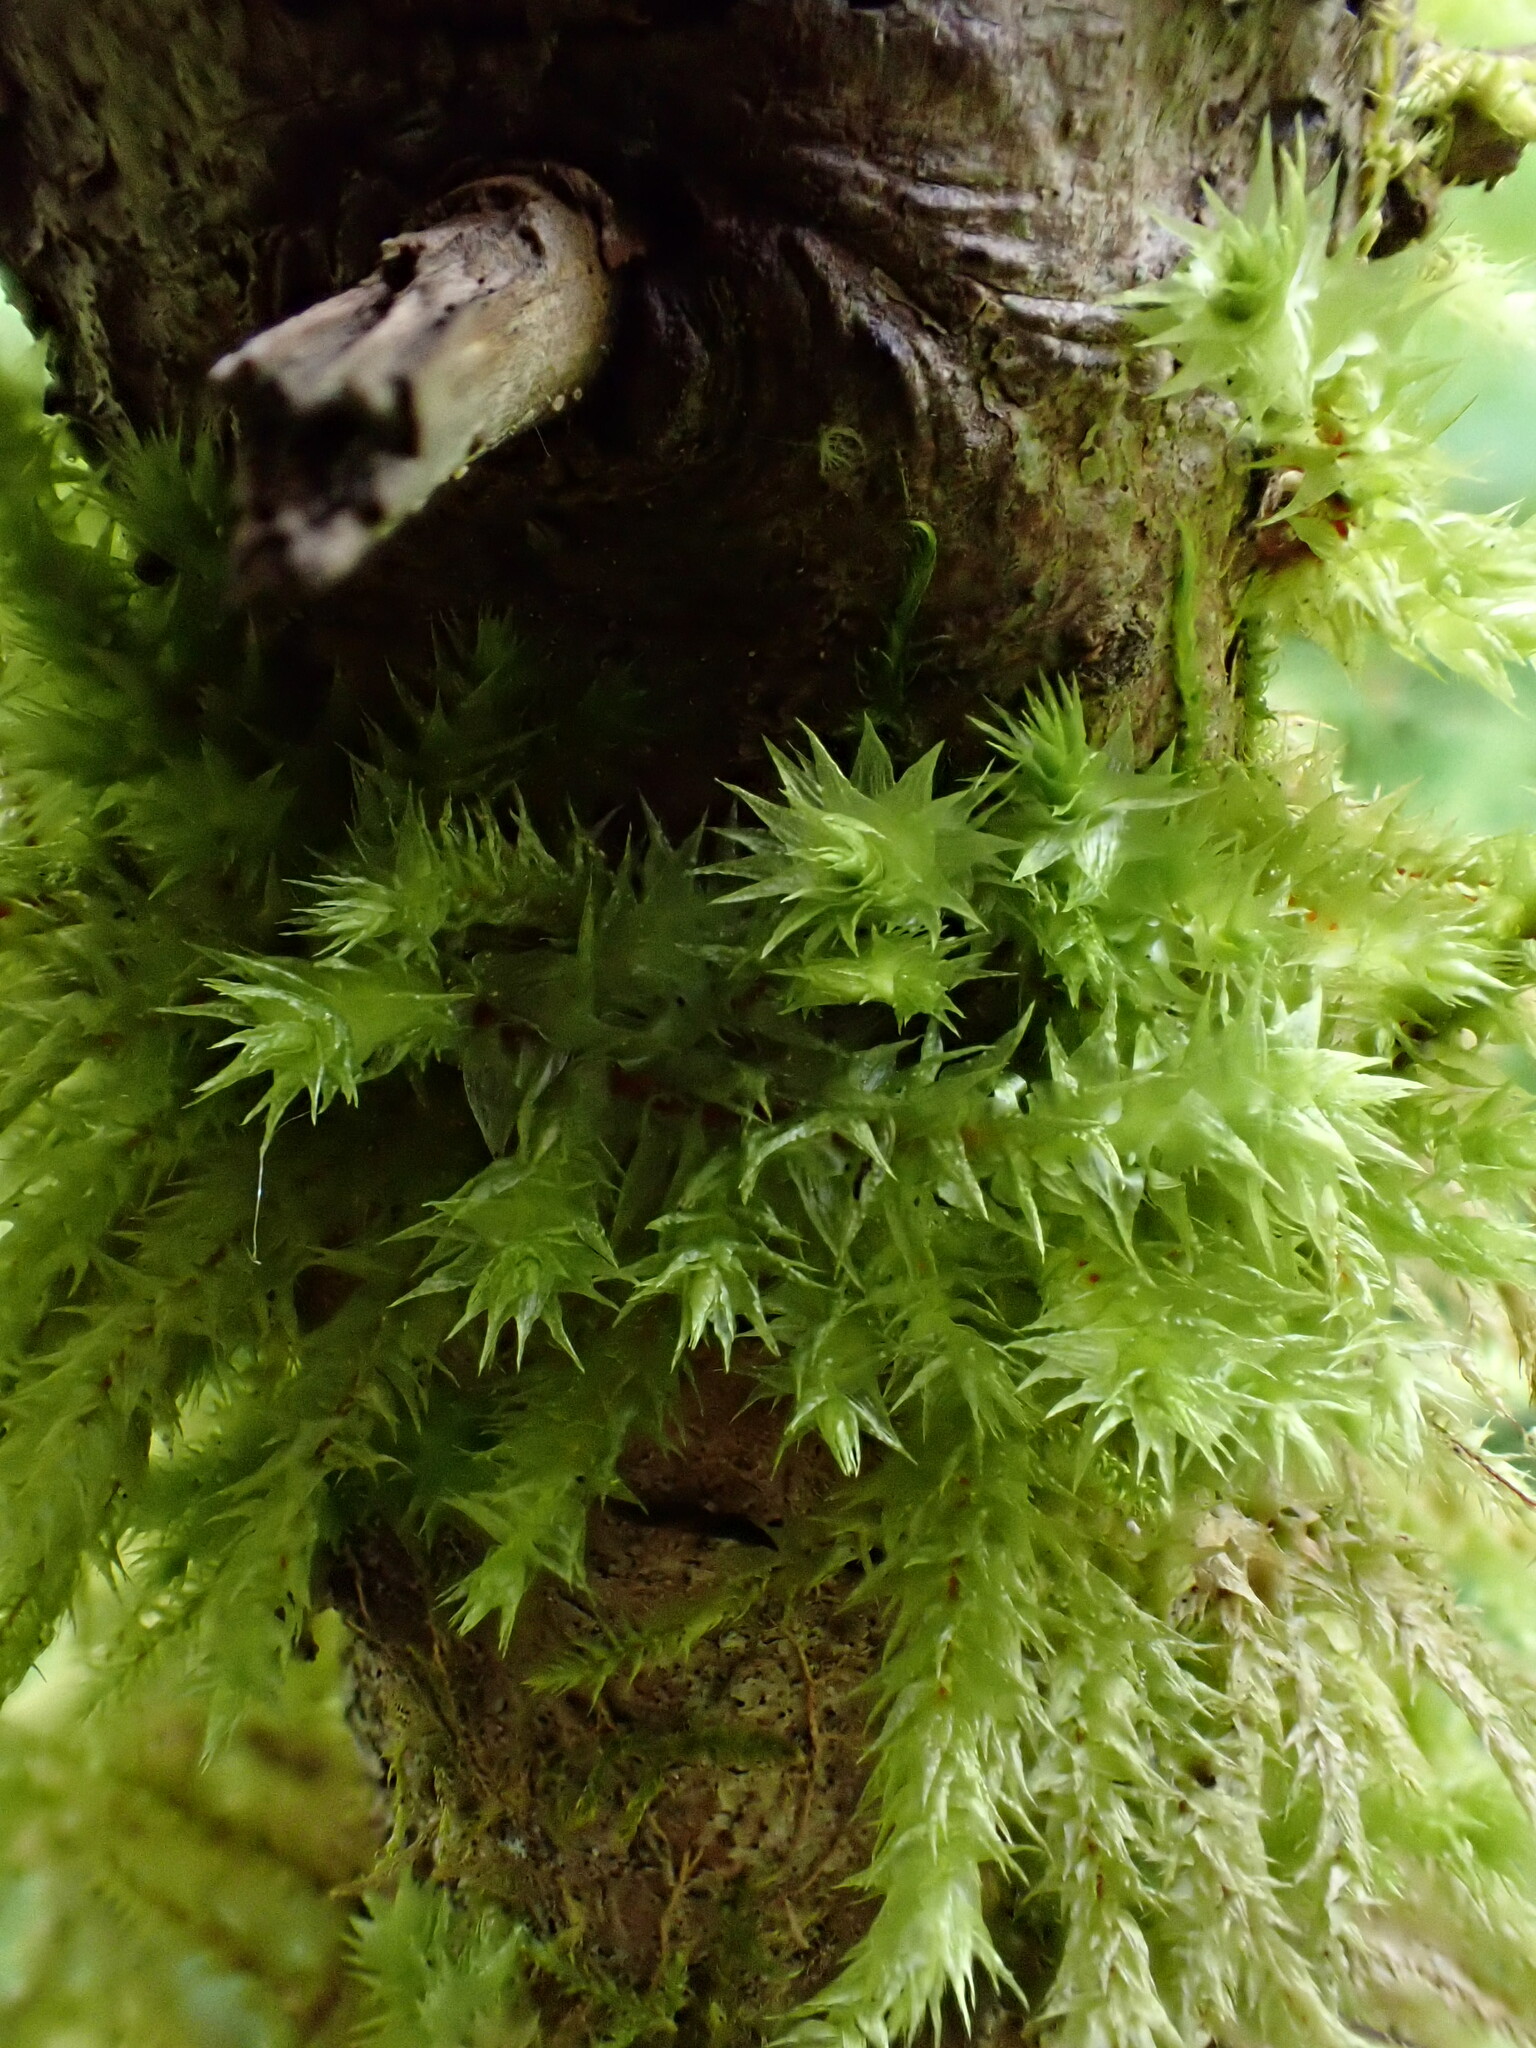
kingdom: Plantae
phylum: Bryophyta
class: Bryopsida
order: Hypnales
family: Hylocomiaceae
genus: Hylocomiadelphus
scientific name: Hylocomiadelphus triquetrus
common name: Rough goose neck moss
